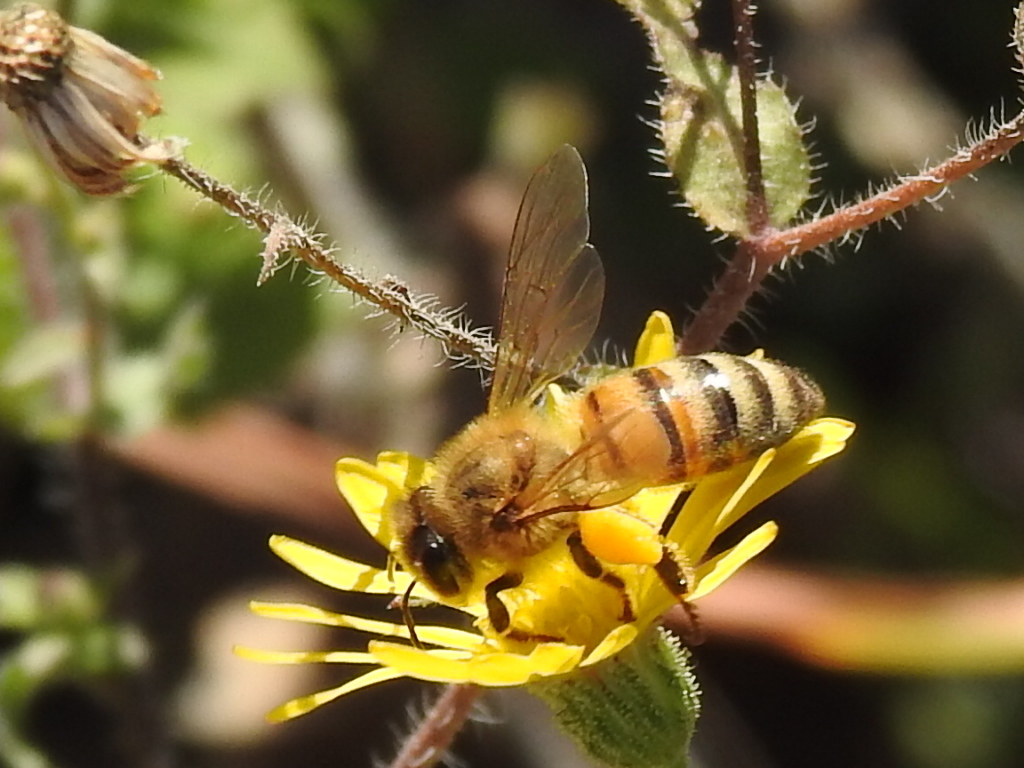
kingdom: Animalia
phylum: Arthropoda
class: Insecta
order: Hymenoptera
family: Apidae
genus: Apis
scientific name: Apis mellifera
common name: Honey bee
